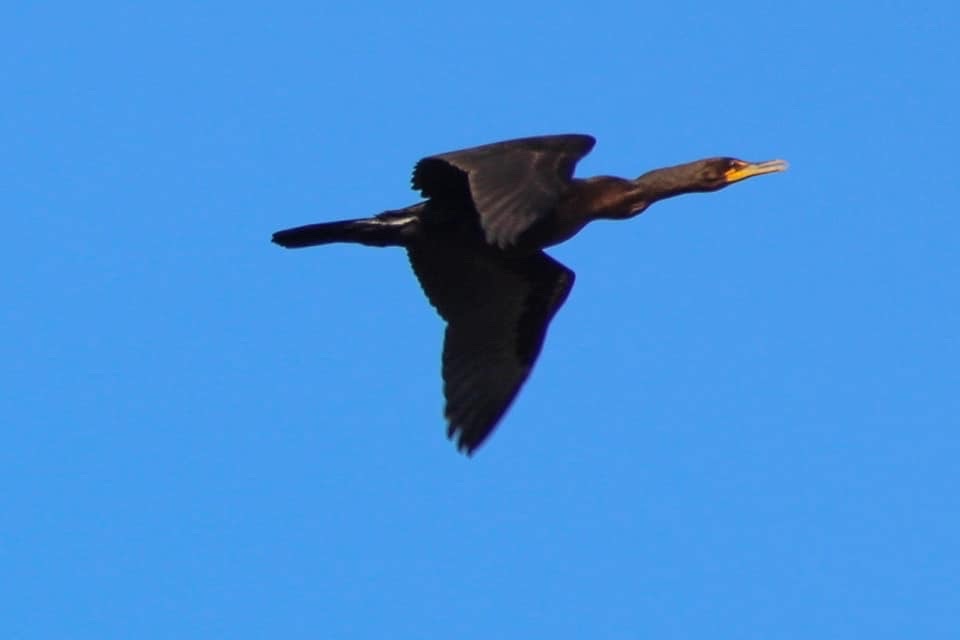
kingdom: Animalia
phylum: Chordata
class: Aves
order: Suliformes
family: Phalacrocoracidae
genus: Phalacrocorax
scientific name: Phalacrocorax auritus
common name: Double-crested cormorant
